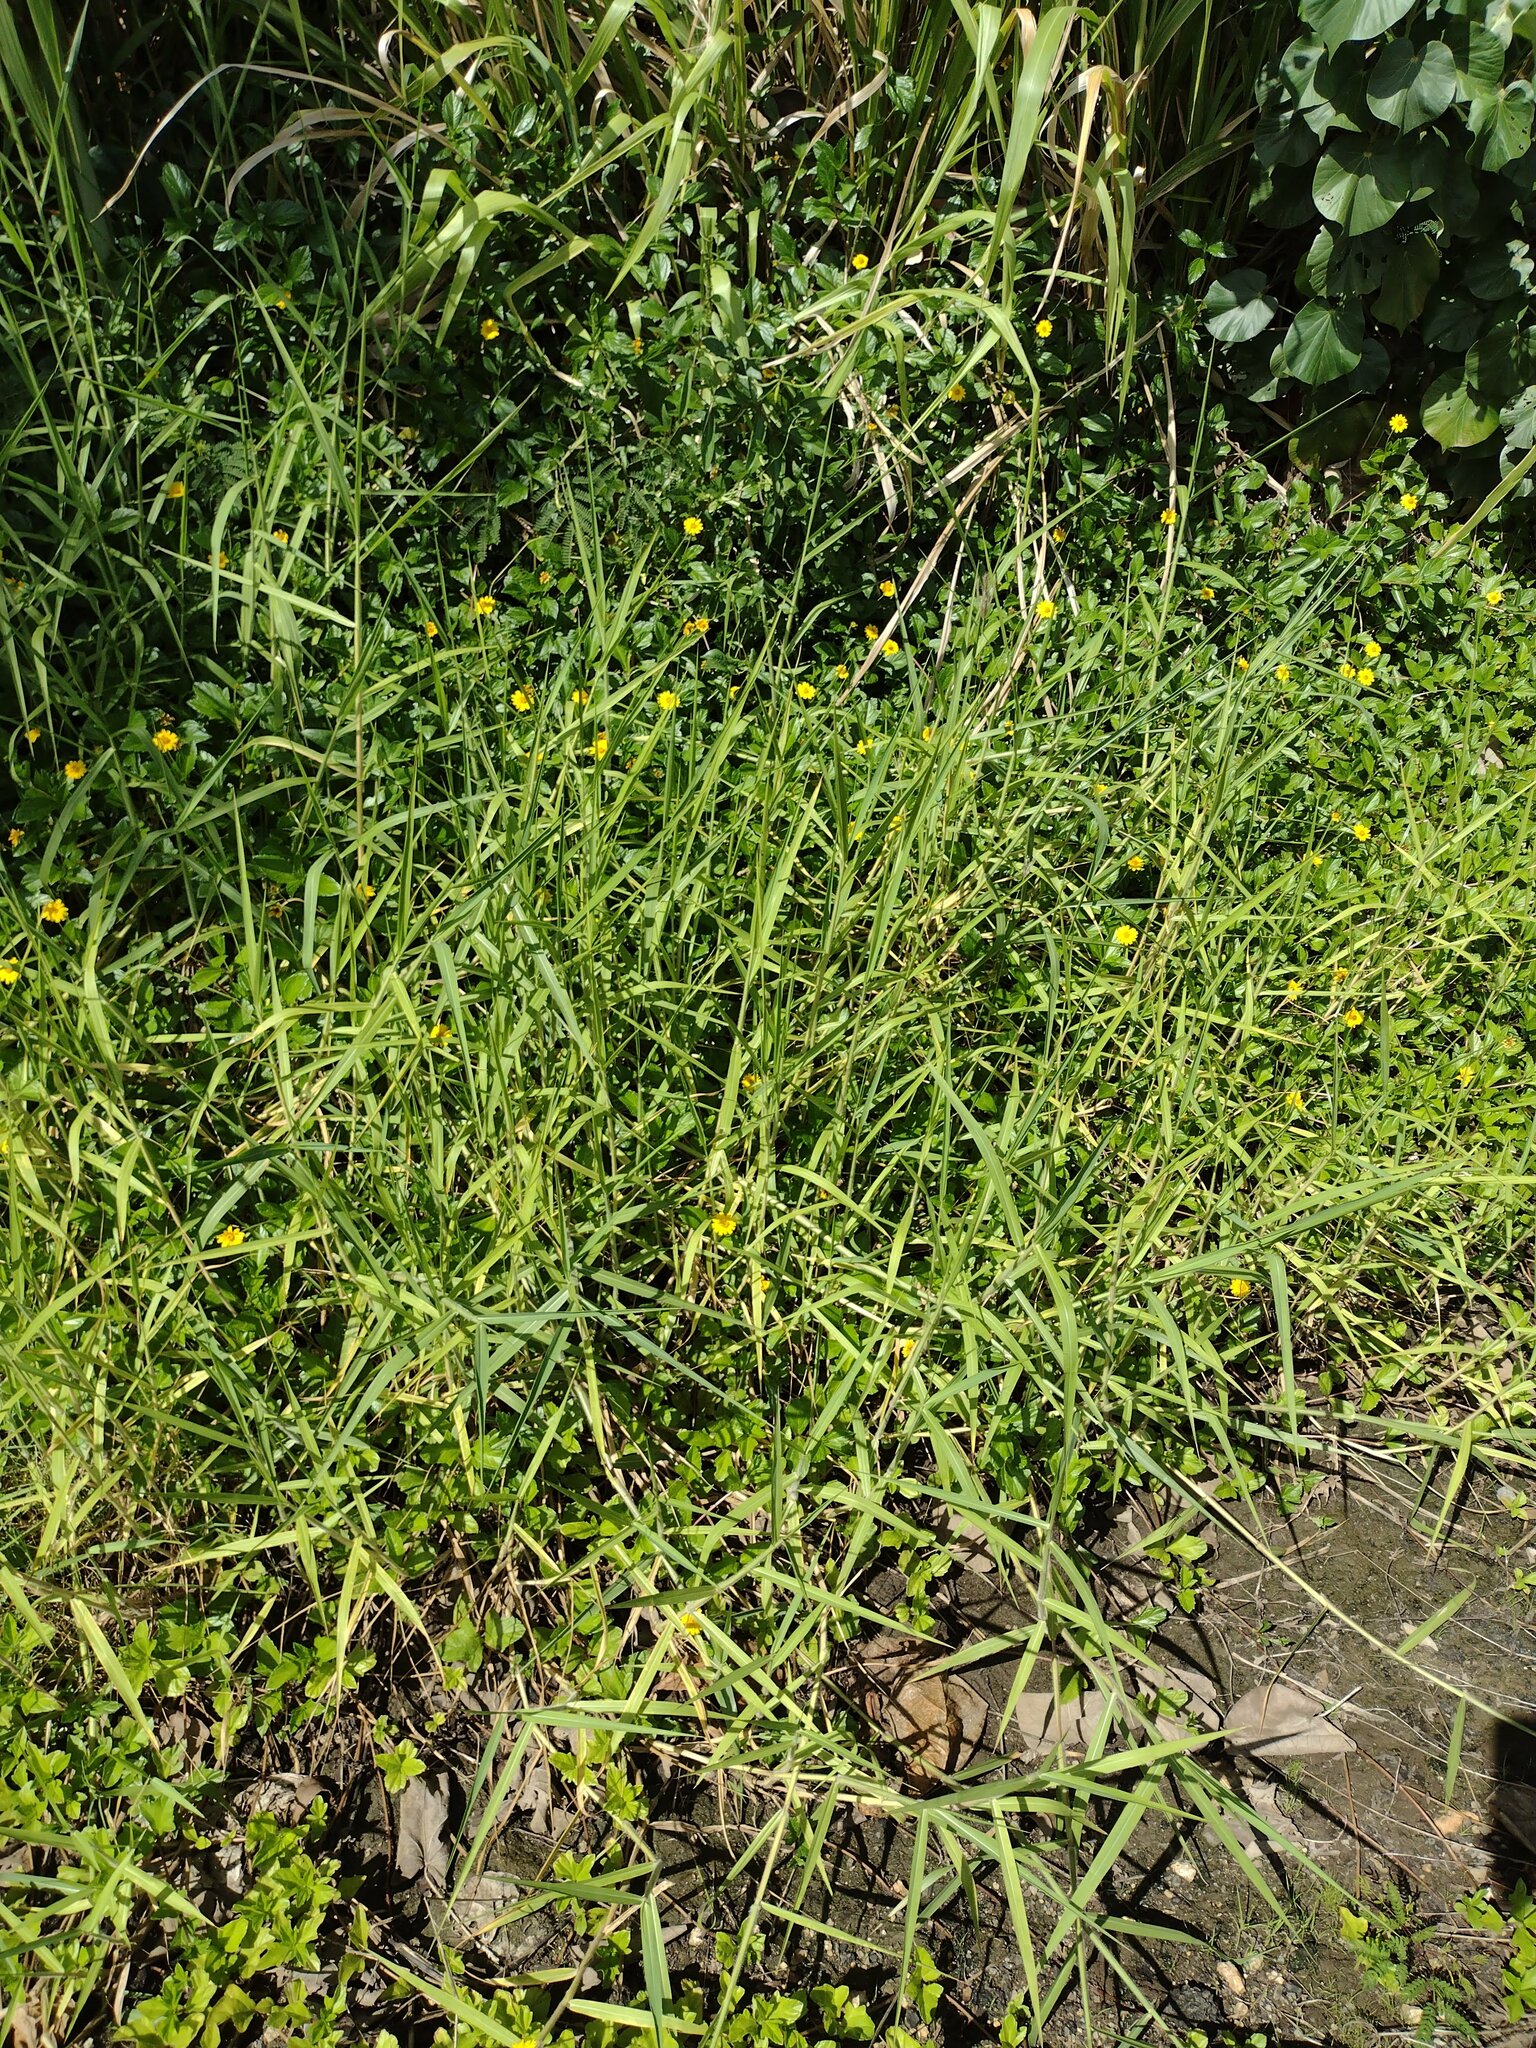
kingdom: Plantae
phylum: Tracheophyta
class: Liliopsida
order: Poales
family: Poaceae
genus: Urochloa
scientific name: Urochloa mutica
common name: Para grass
